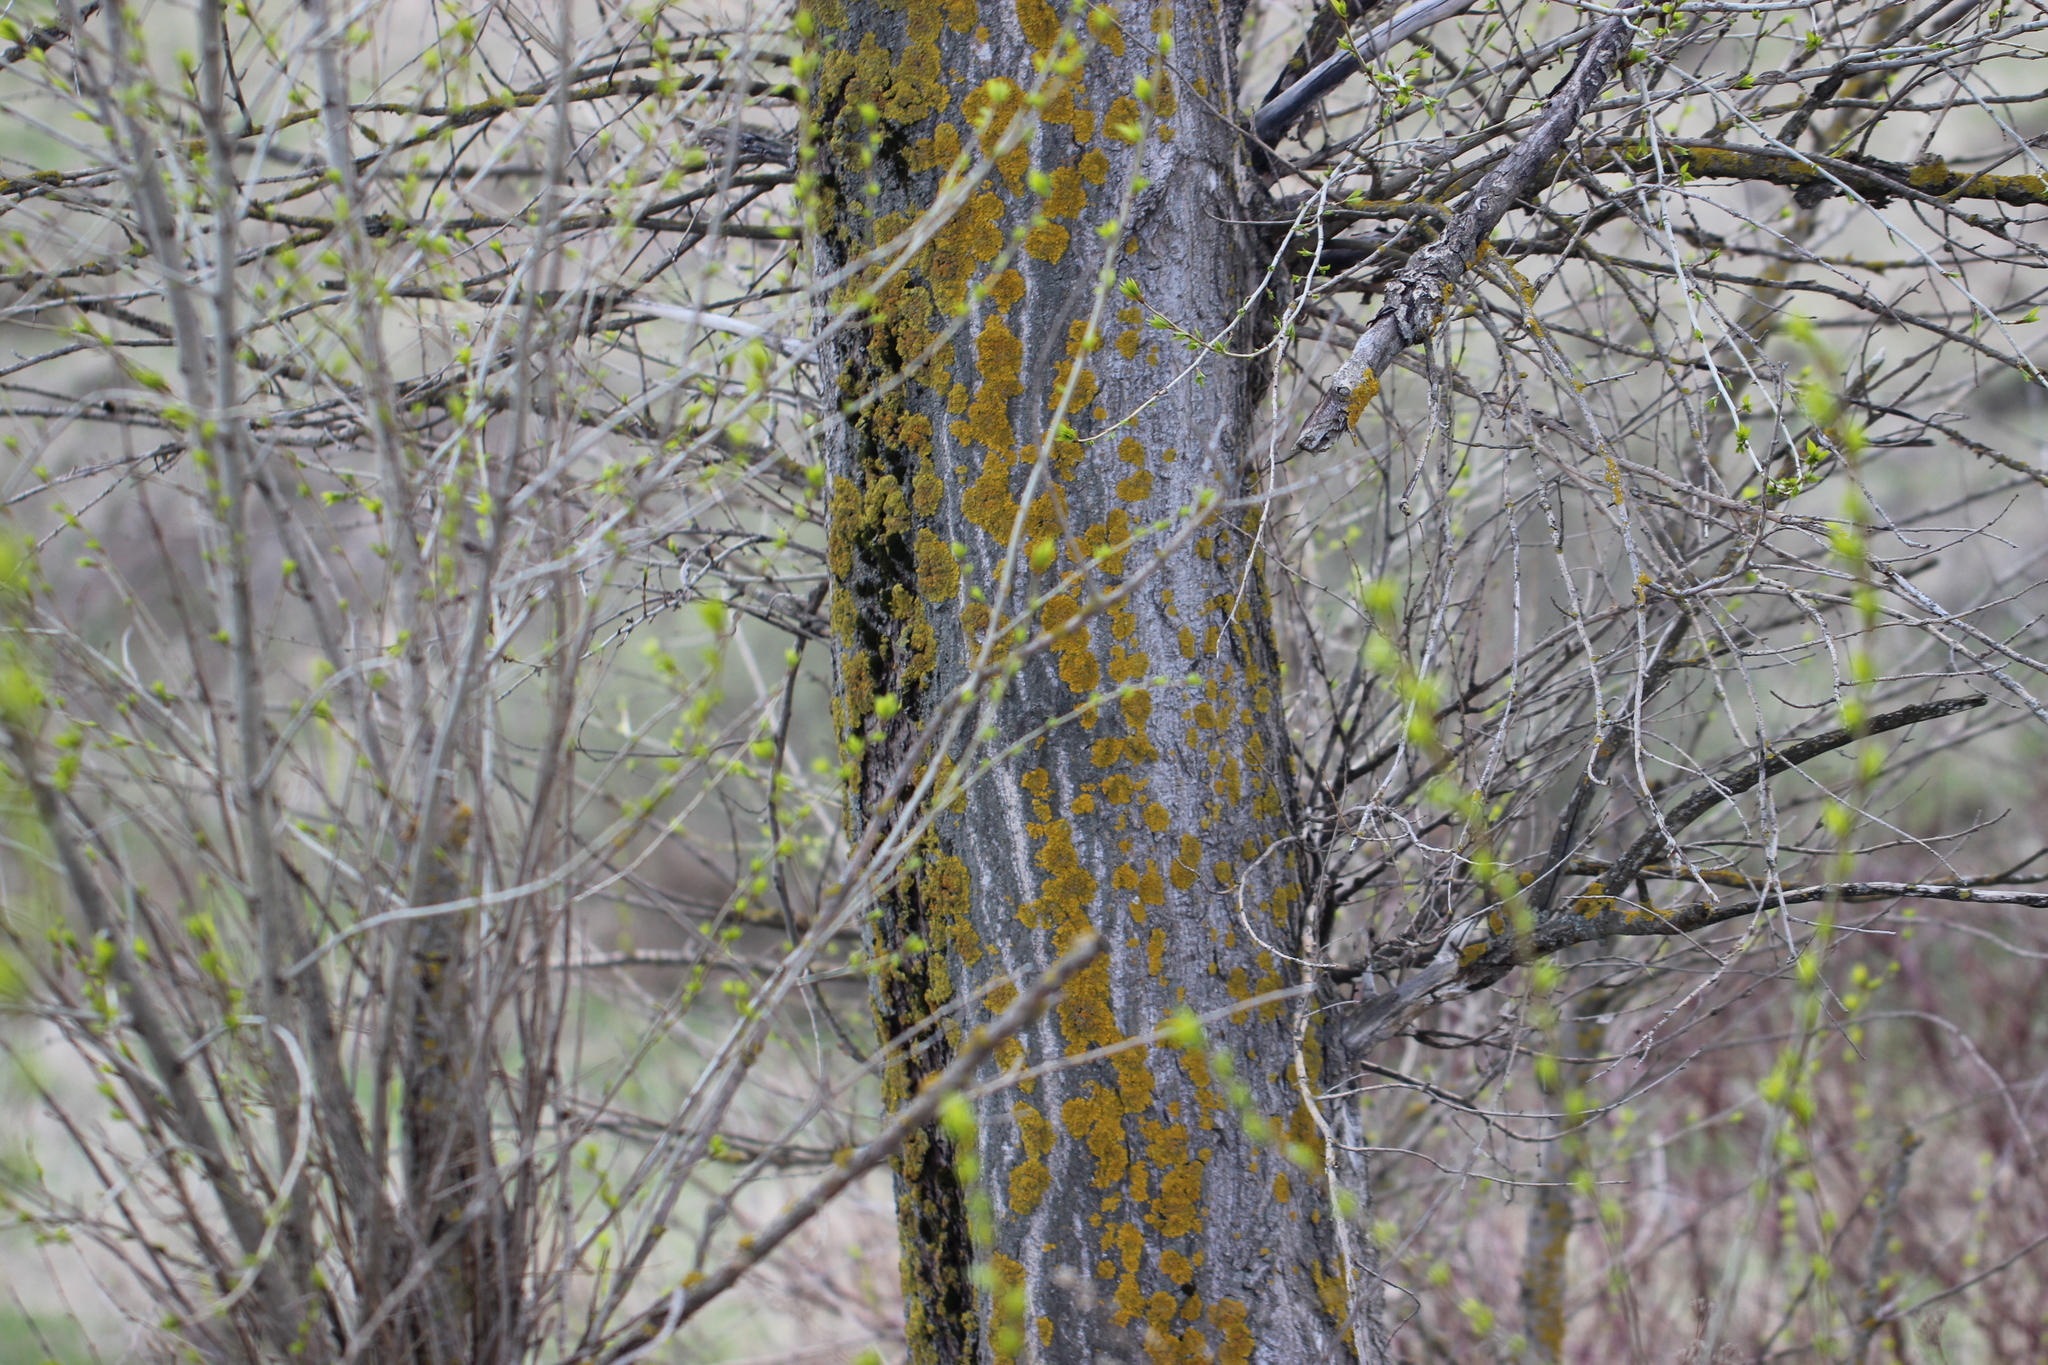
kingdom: Fungi
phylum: Ascomycota
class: Lecanoromycetes
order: Teloschistales
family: Teloschistaceae
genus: Xanthoria
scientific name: Xanthoria parietina
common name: Common orange lichen
